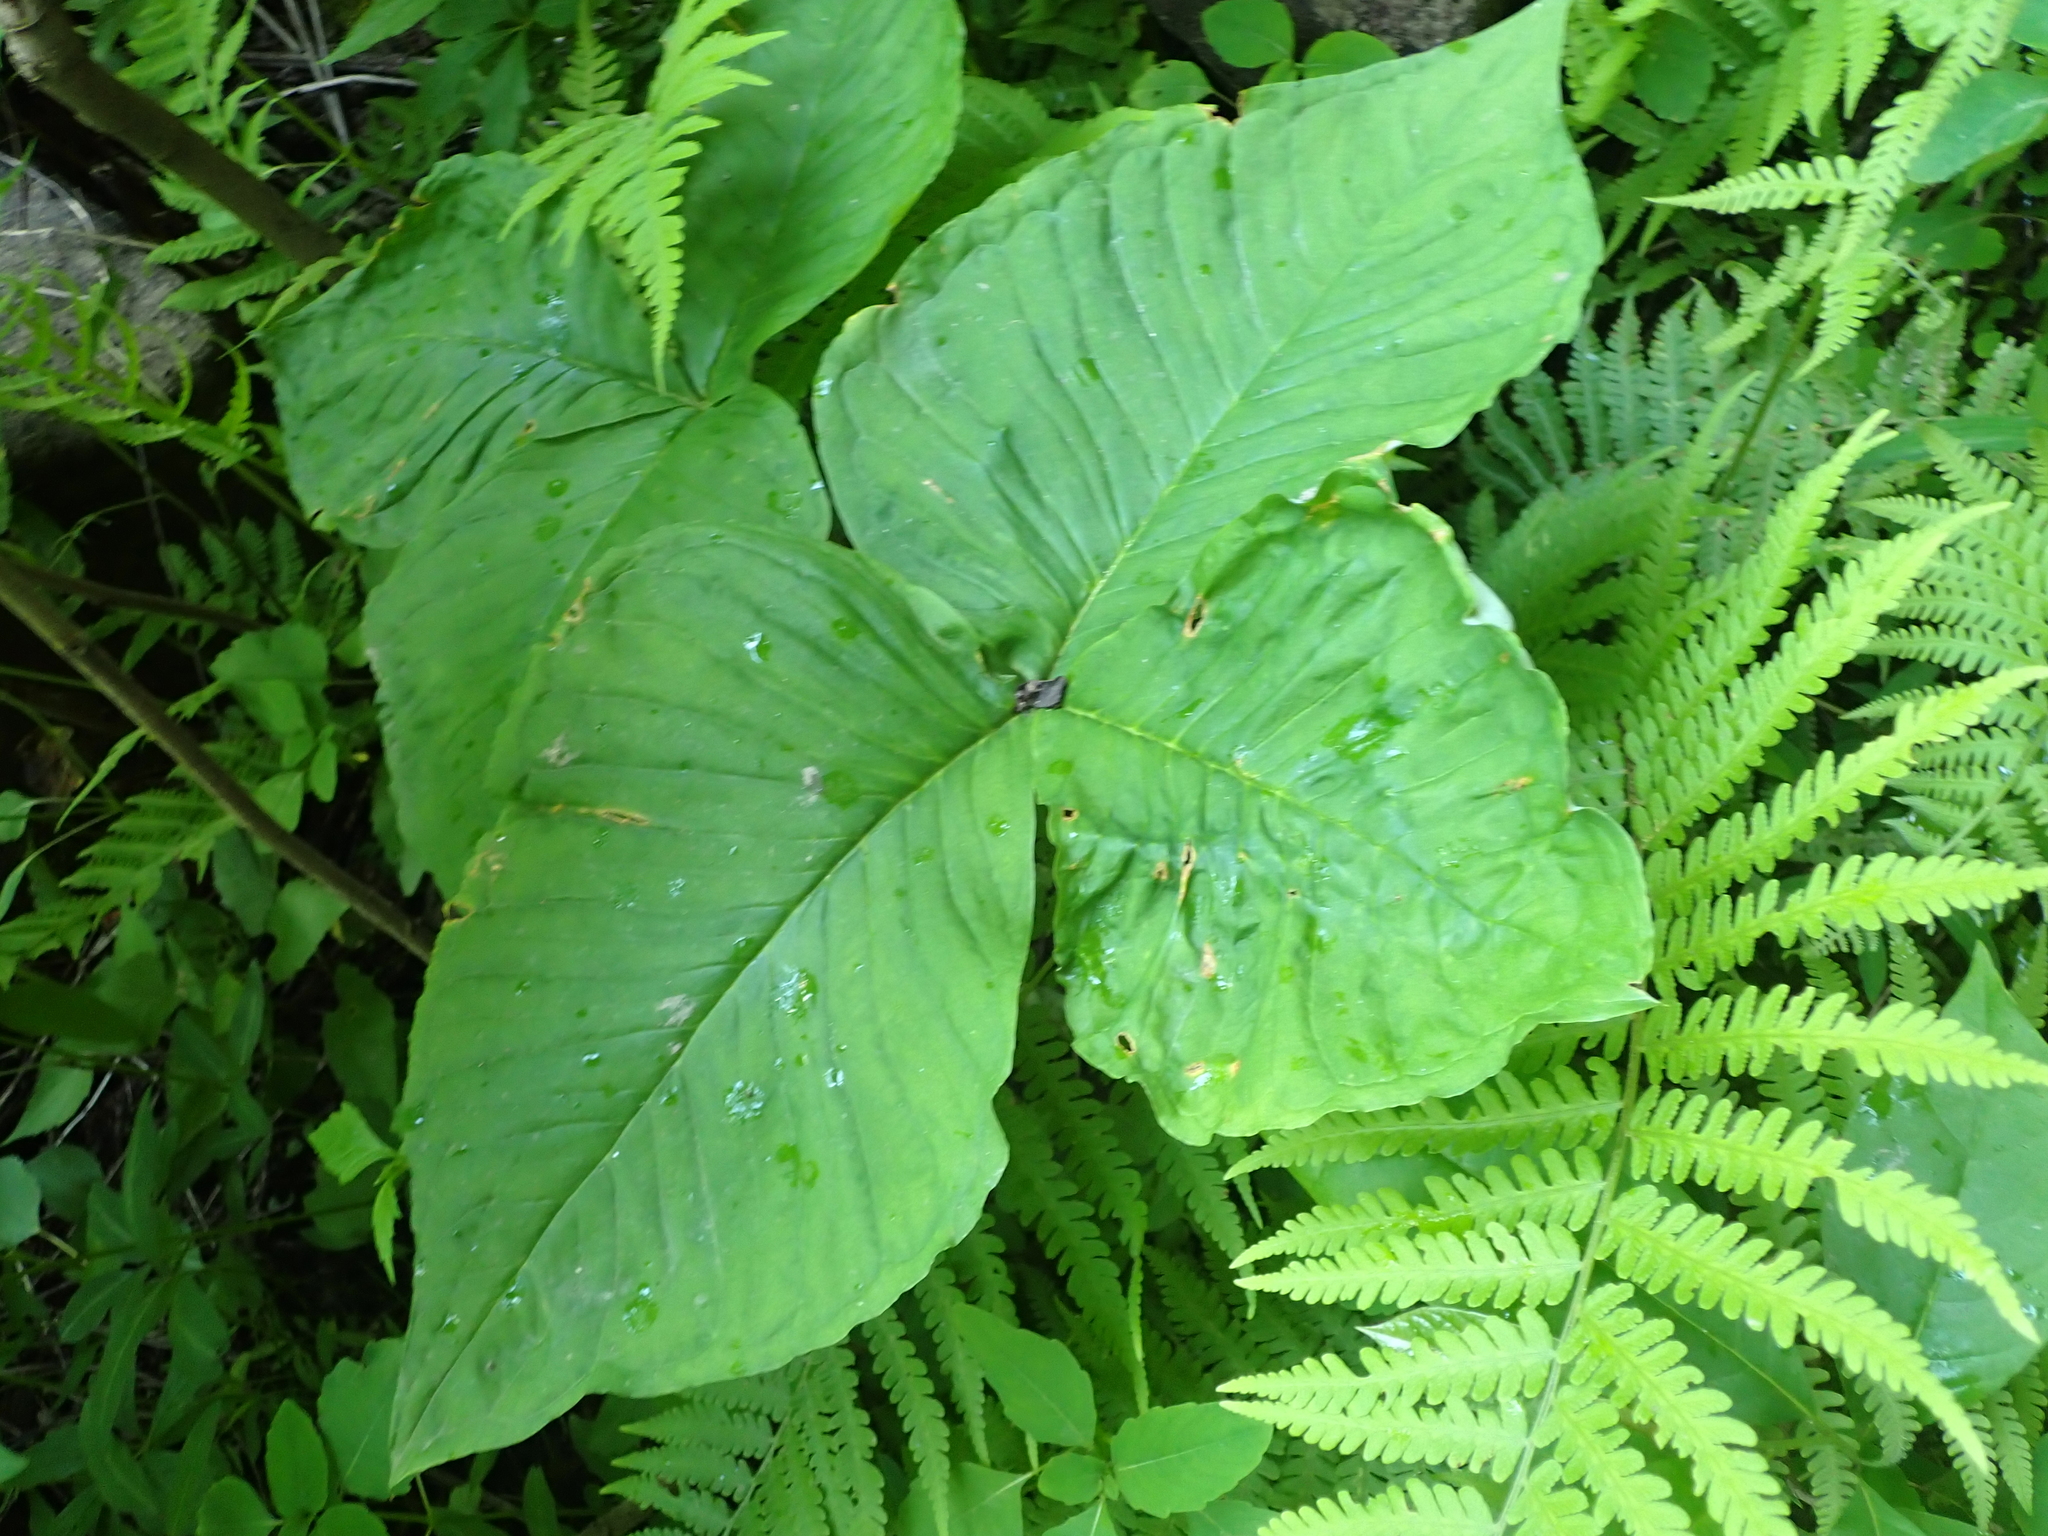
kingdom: Plantae
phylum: Tracheophyta
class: Liliopsida
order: Alismatales
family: Araceae
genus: Arisaema
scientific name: Arisaema triphyllum
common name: Jack-in-the-pulpit
